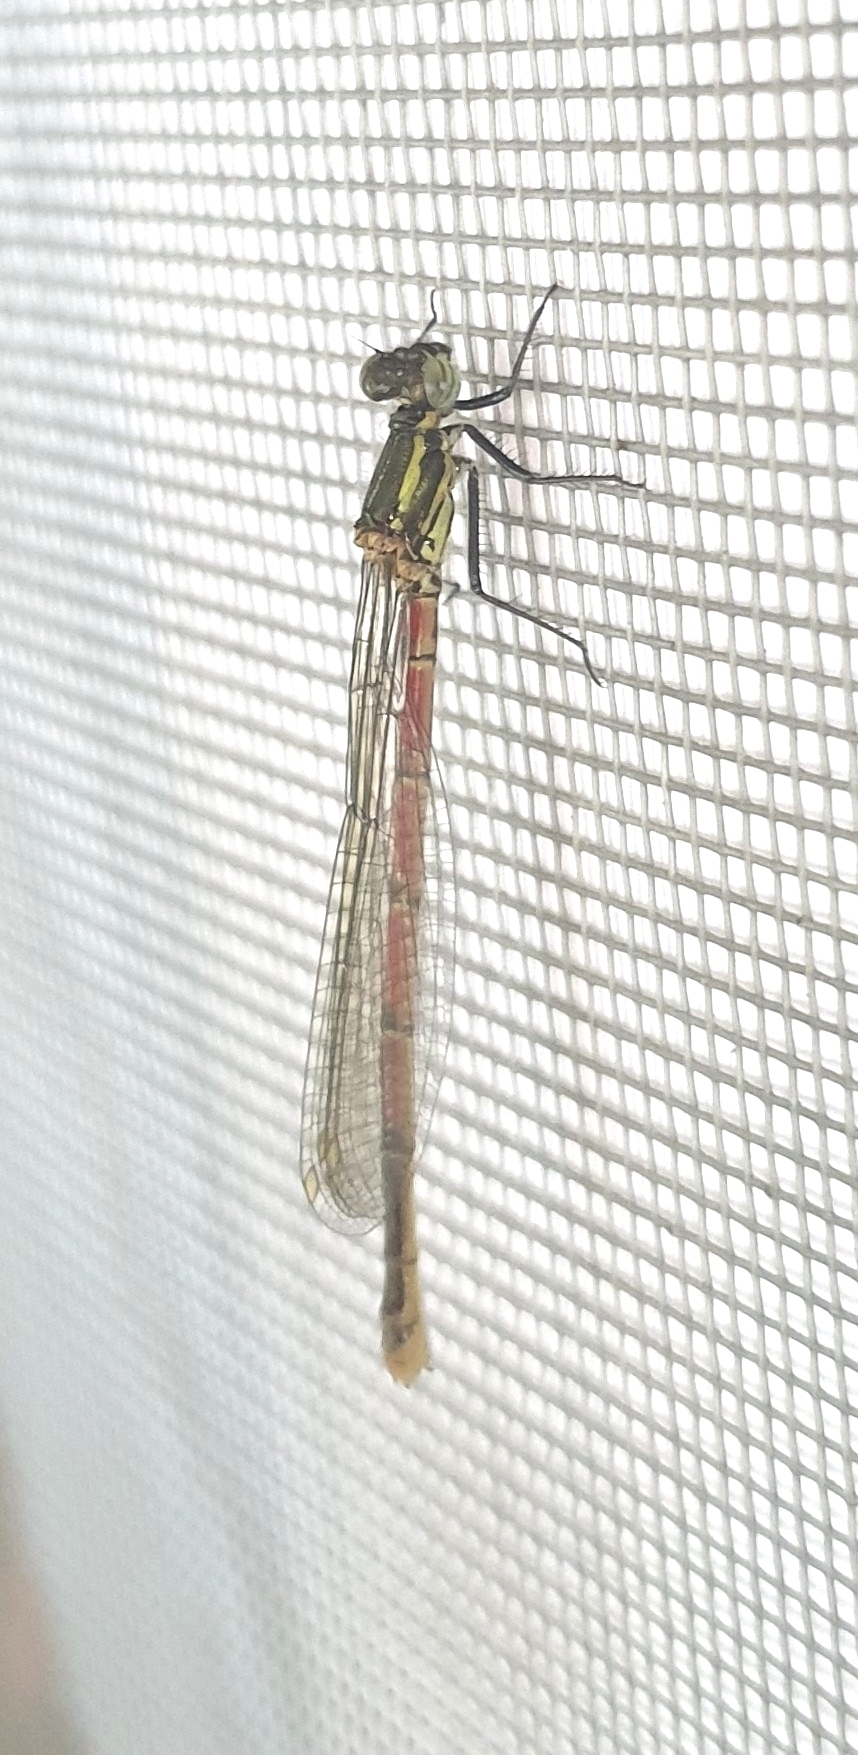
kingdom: Animalia
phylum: Arthropoda
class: Insecta
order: Odonata
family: Coenagrionidae
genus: Pyrrhosoma
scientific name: Pyrrhosoma nymphula
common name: Large red damsel
